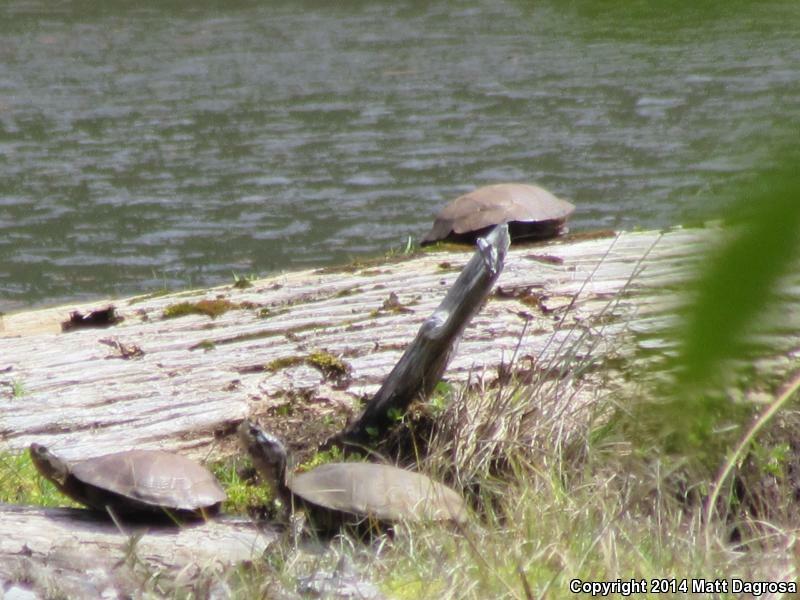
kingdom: Animalia
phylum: Chordata
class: Testudines
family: Emydidae
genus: Actinemys
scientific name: Actinemys marmorata
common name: Western pond turtle
